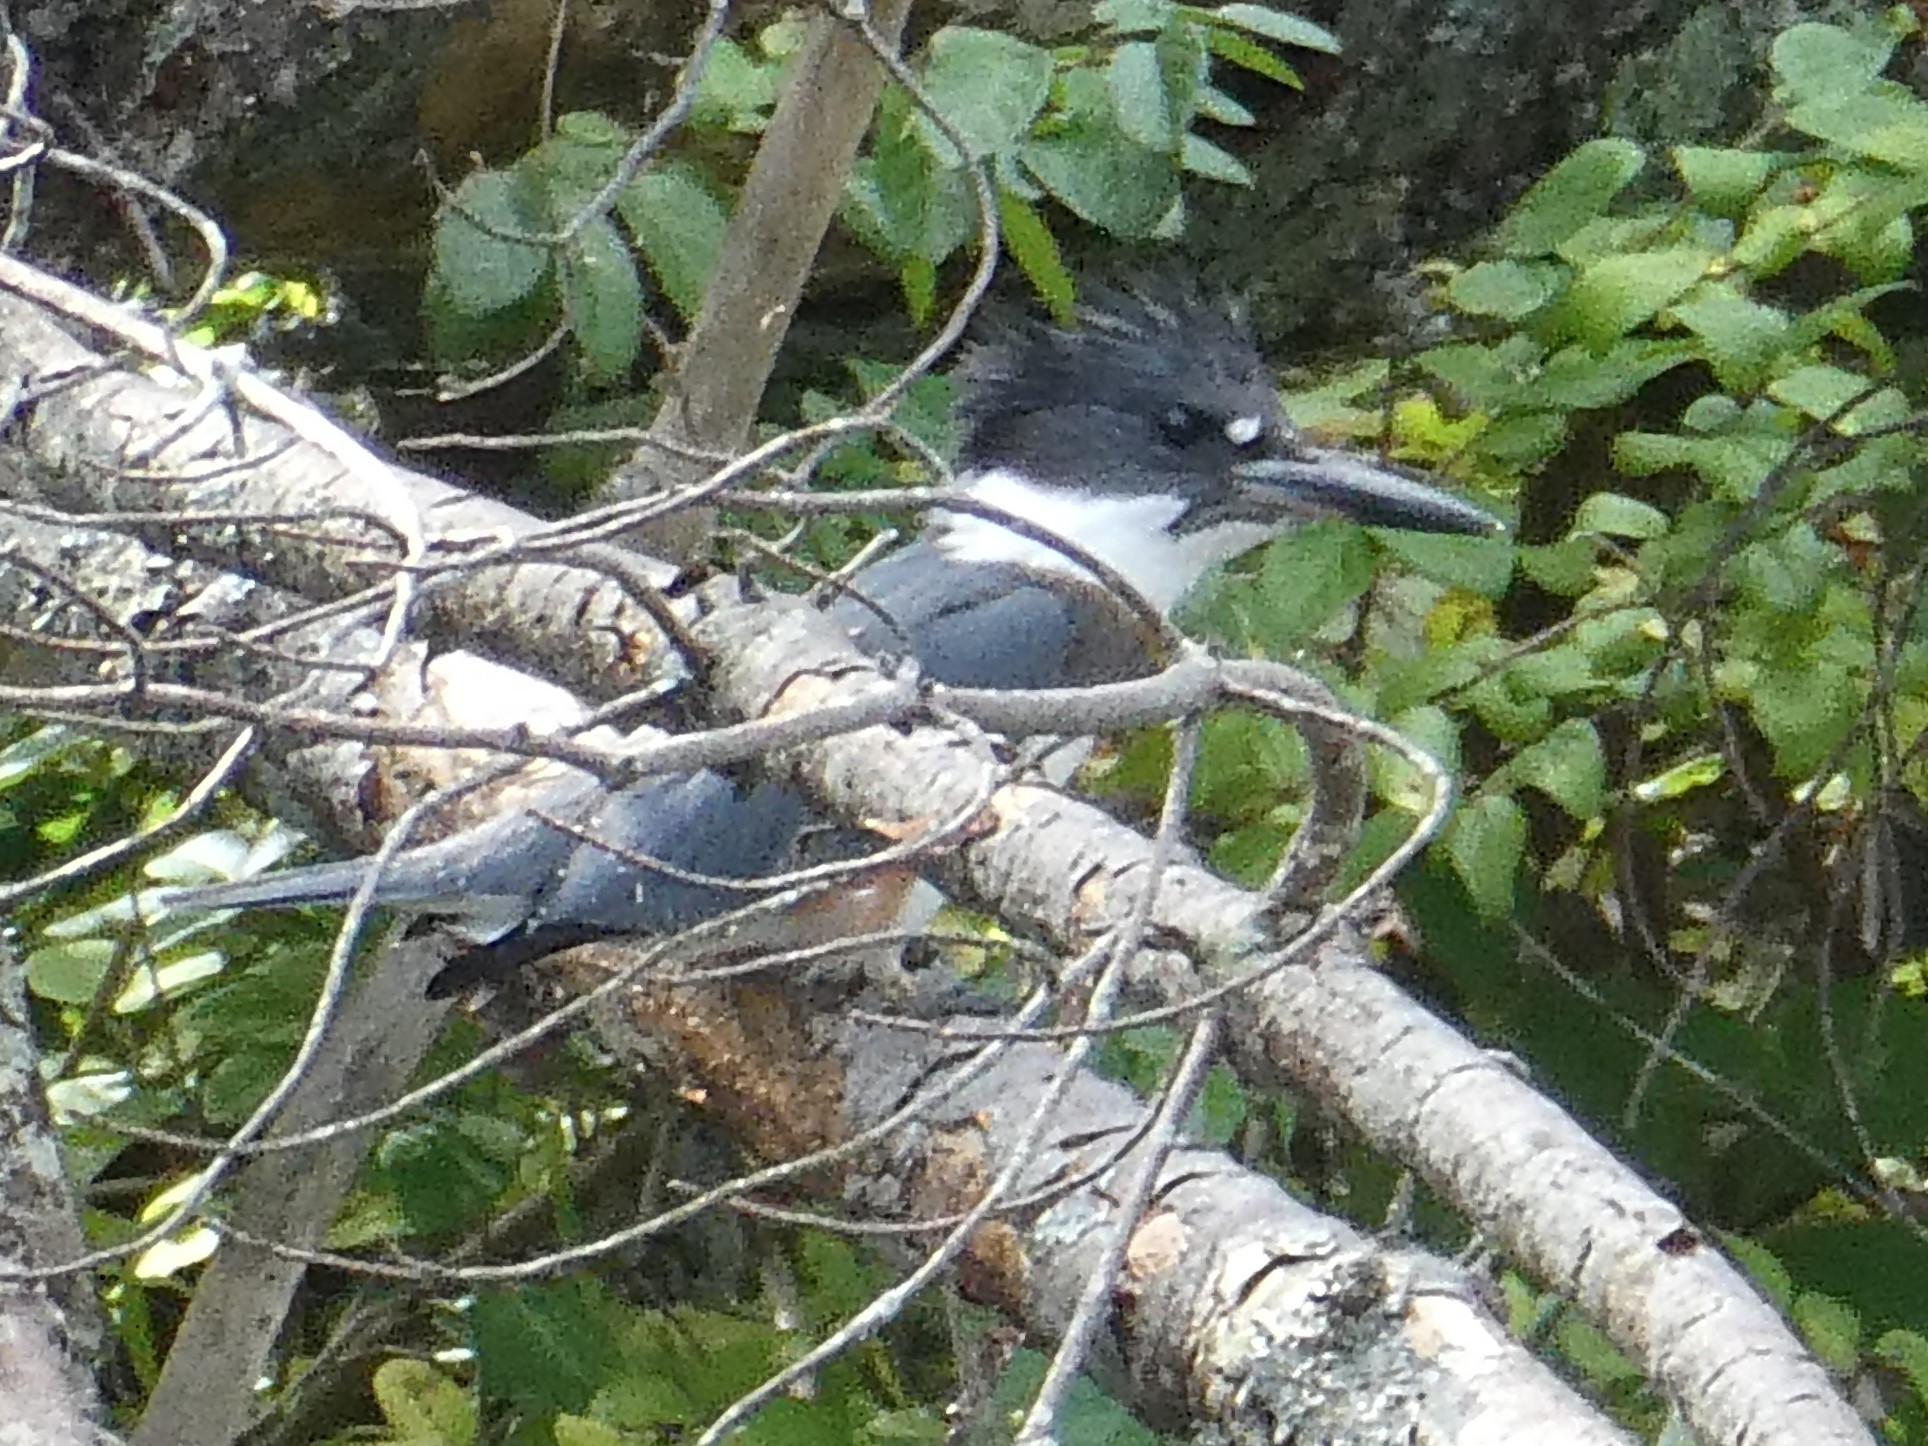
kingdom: Animalia
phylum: Chordata
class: Aves
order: Coraciiformes
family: Alcedinidae
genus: Megaceryle
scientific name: Megaceryle alcyon
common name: Belted kingfisher
